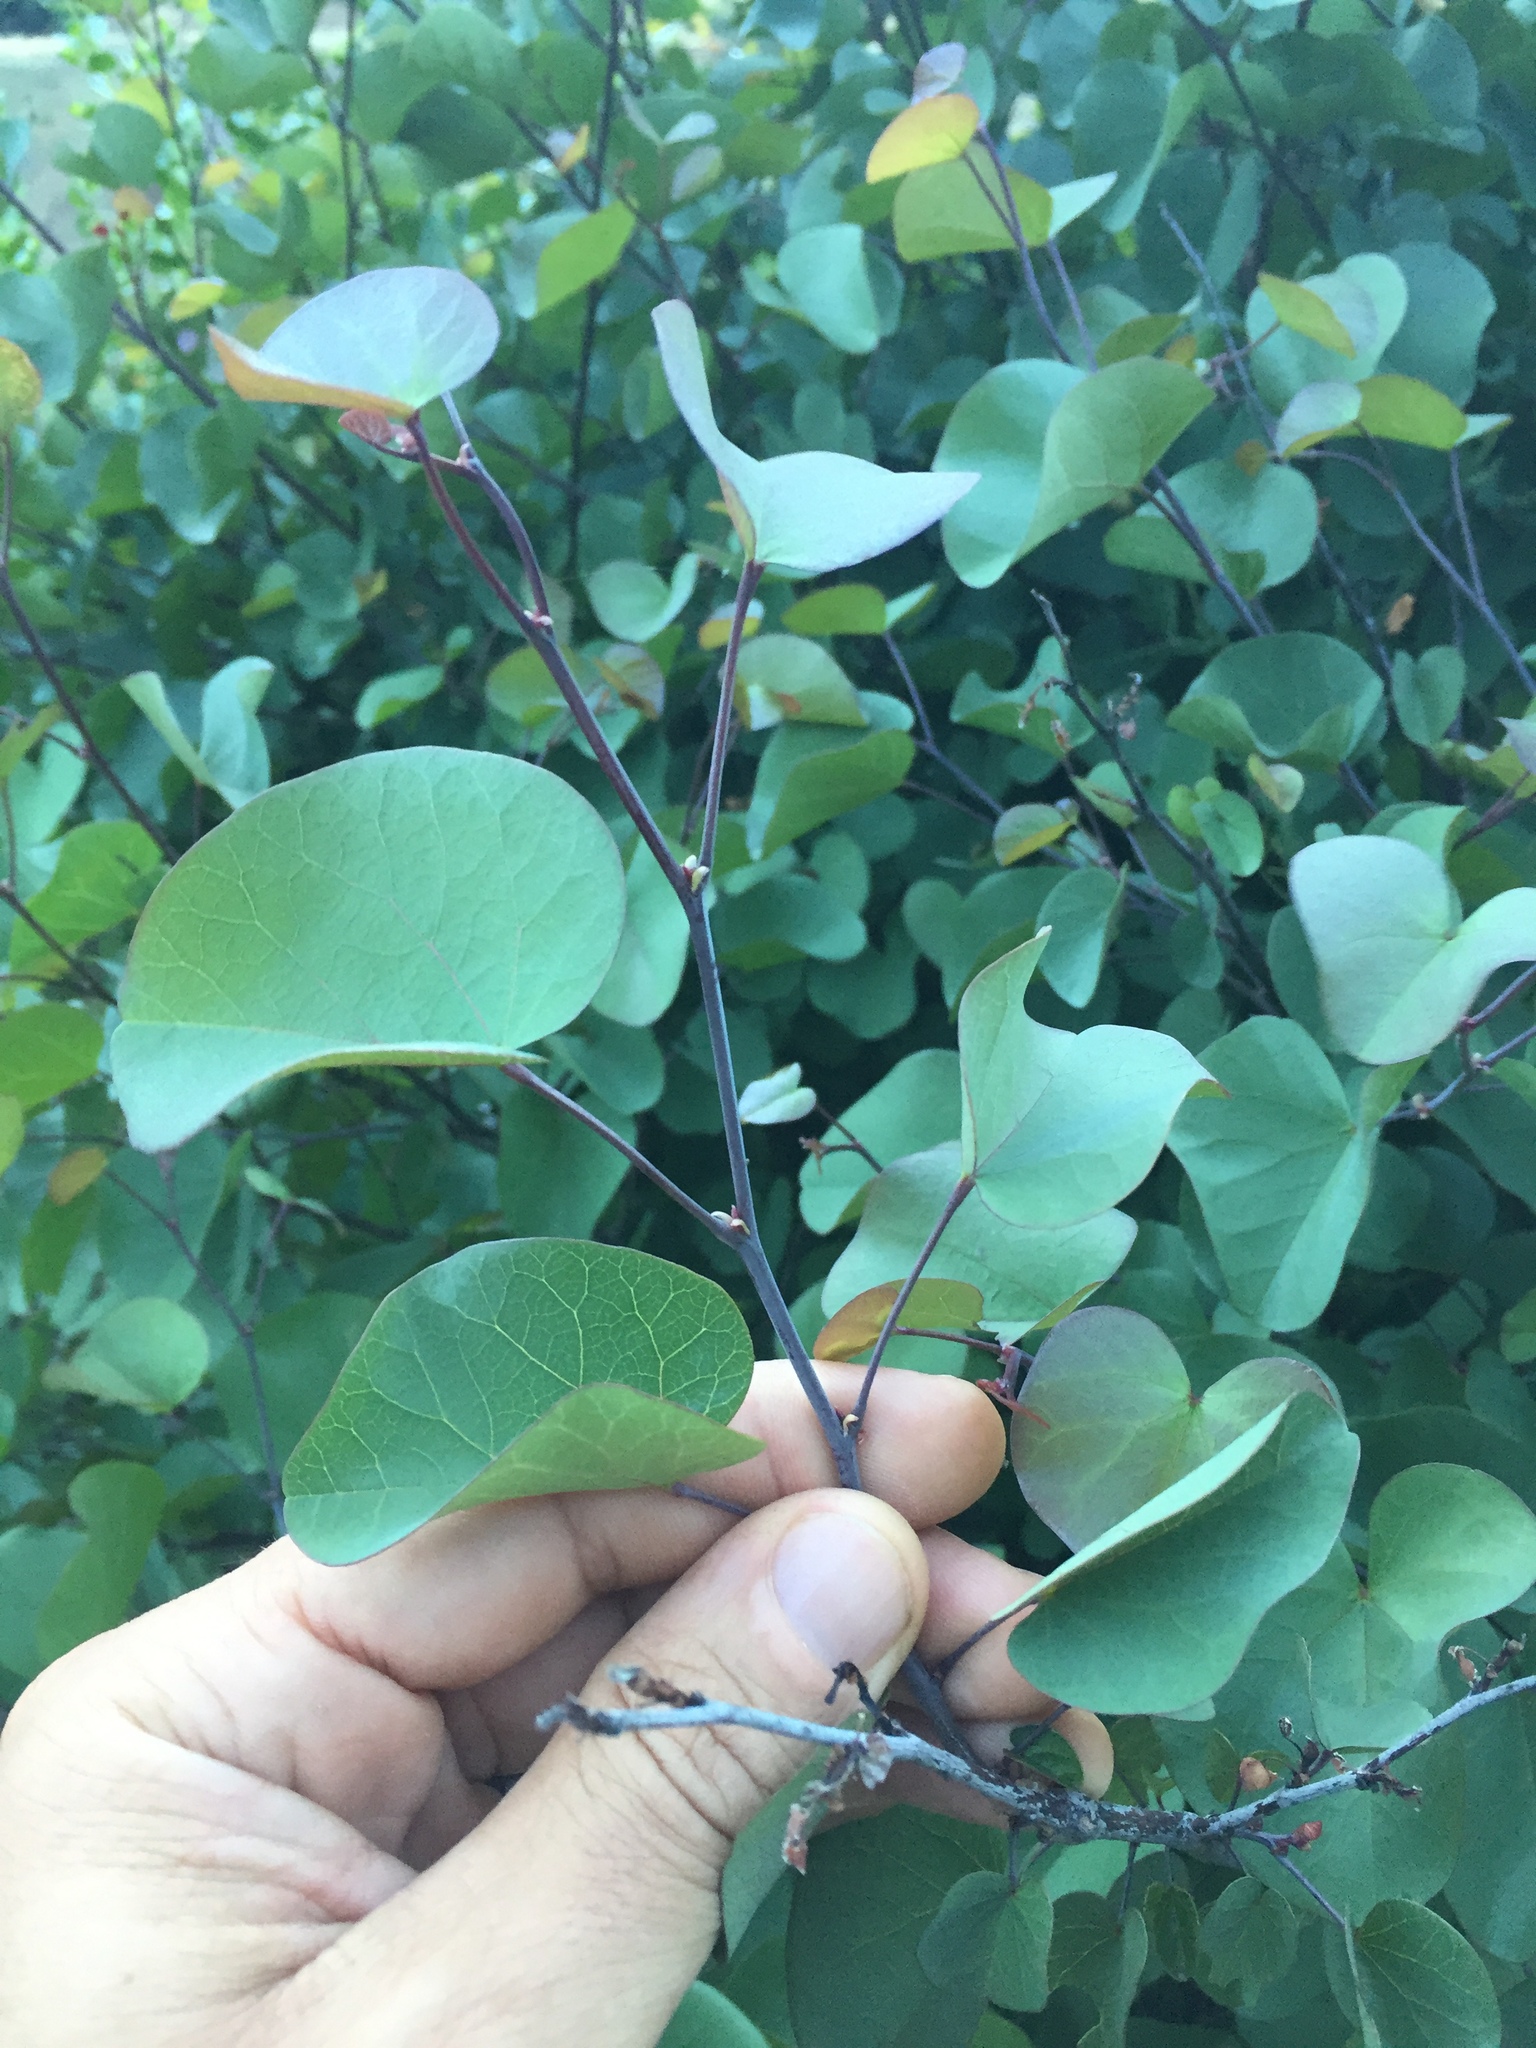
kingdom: Plantae
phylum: Tracheophyta
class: Magnoliopsida
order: Fabales
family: Fabaceae
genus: Cercis
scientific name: Cercis occidentalis
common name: California redbud
